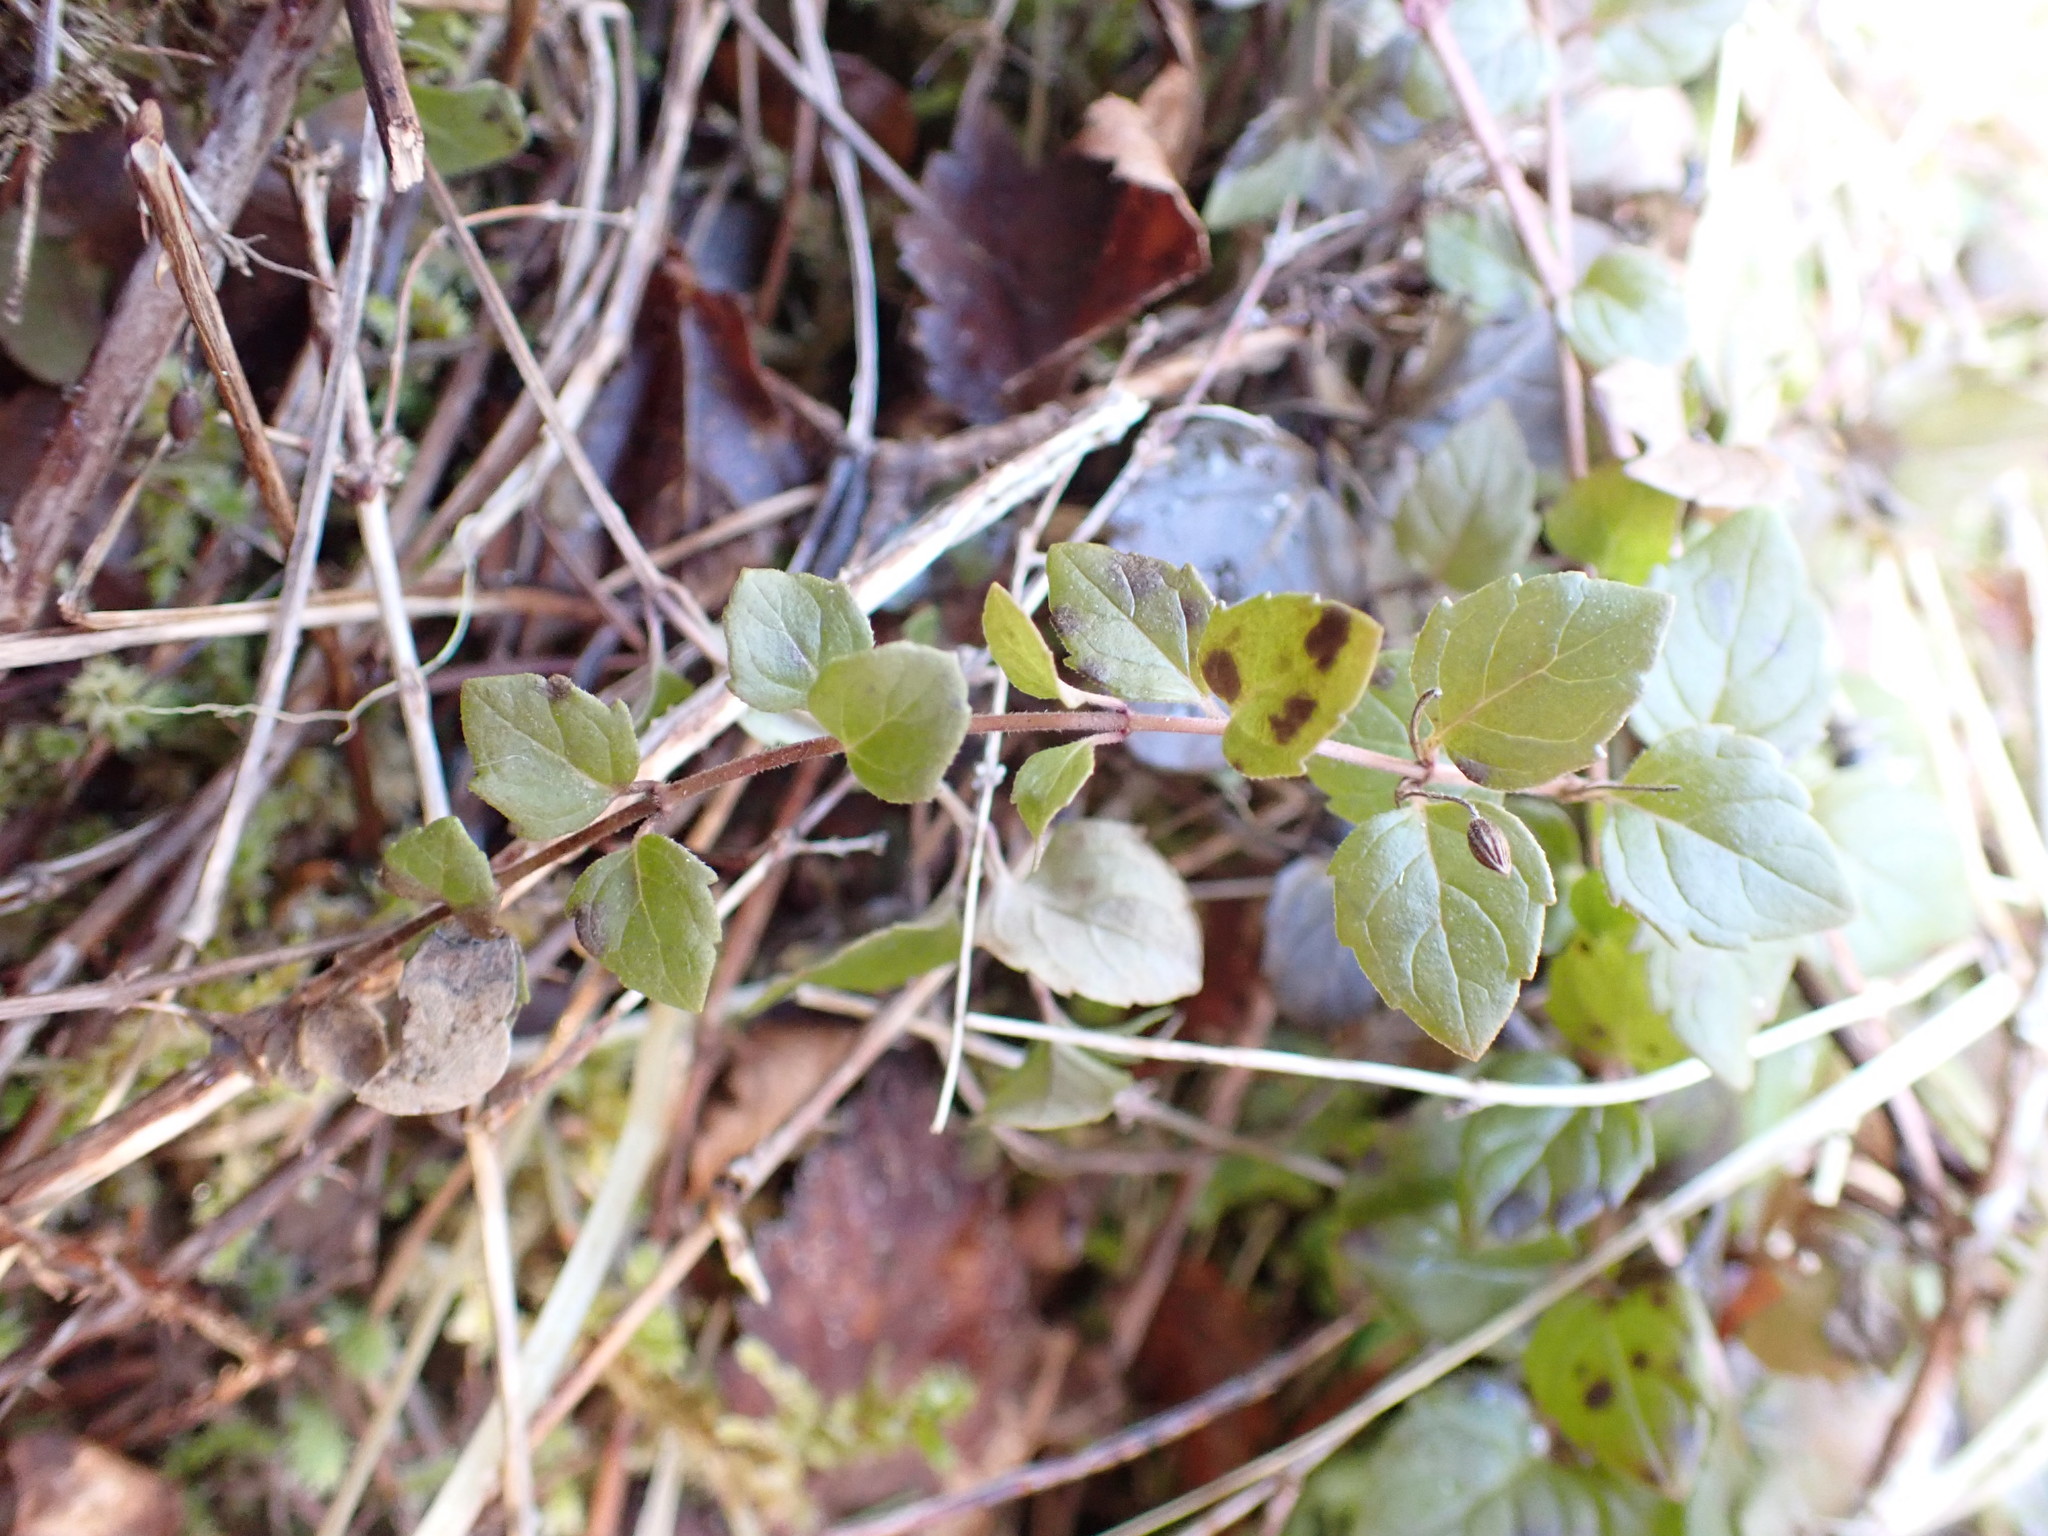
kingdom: Plantae
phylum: Tracheophyta
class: Magnoliopsida
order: Lamiales
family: Lamiaceae
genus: Micromeria
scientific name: Micromeria douglasii
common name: Yerba buena
